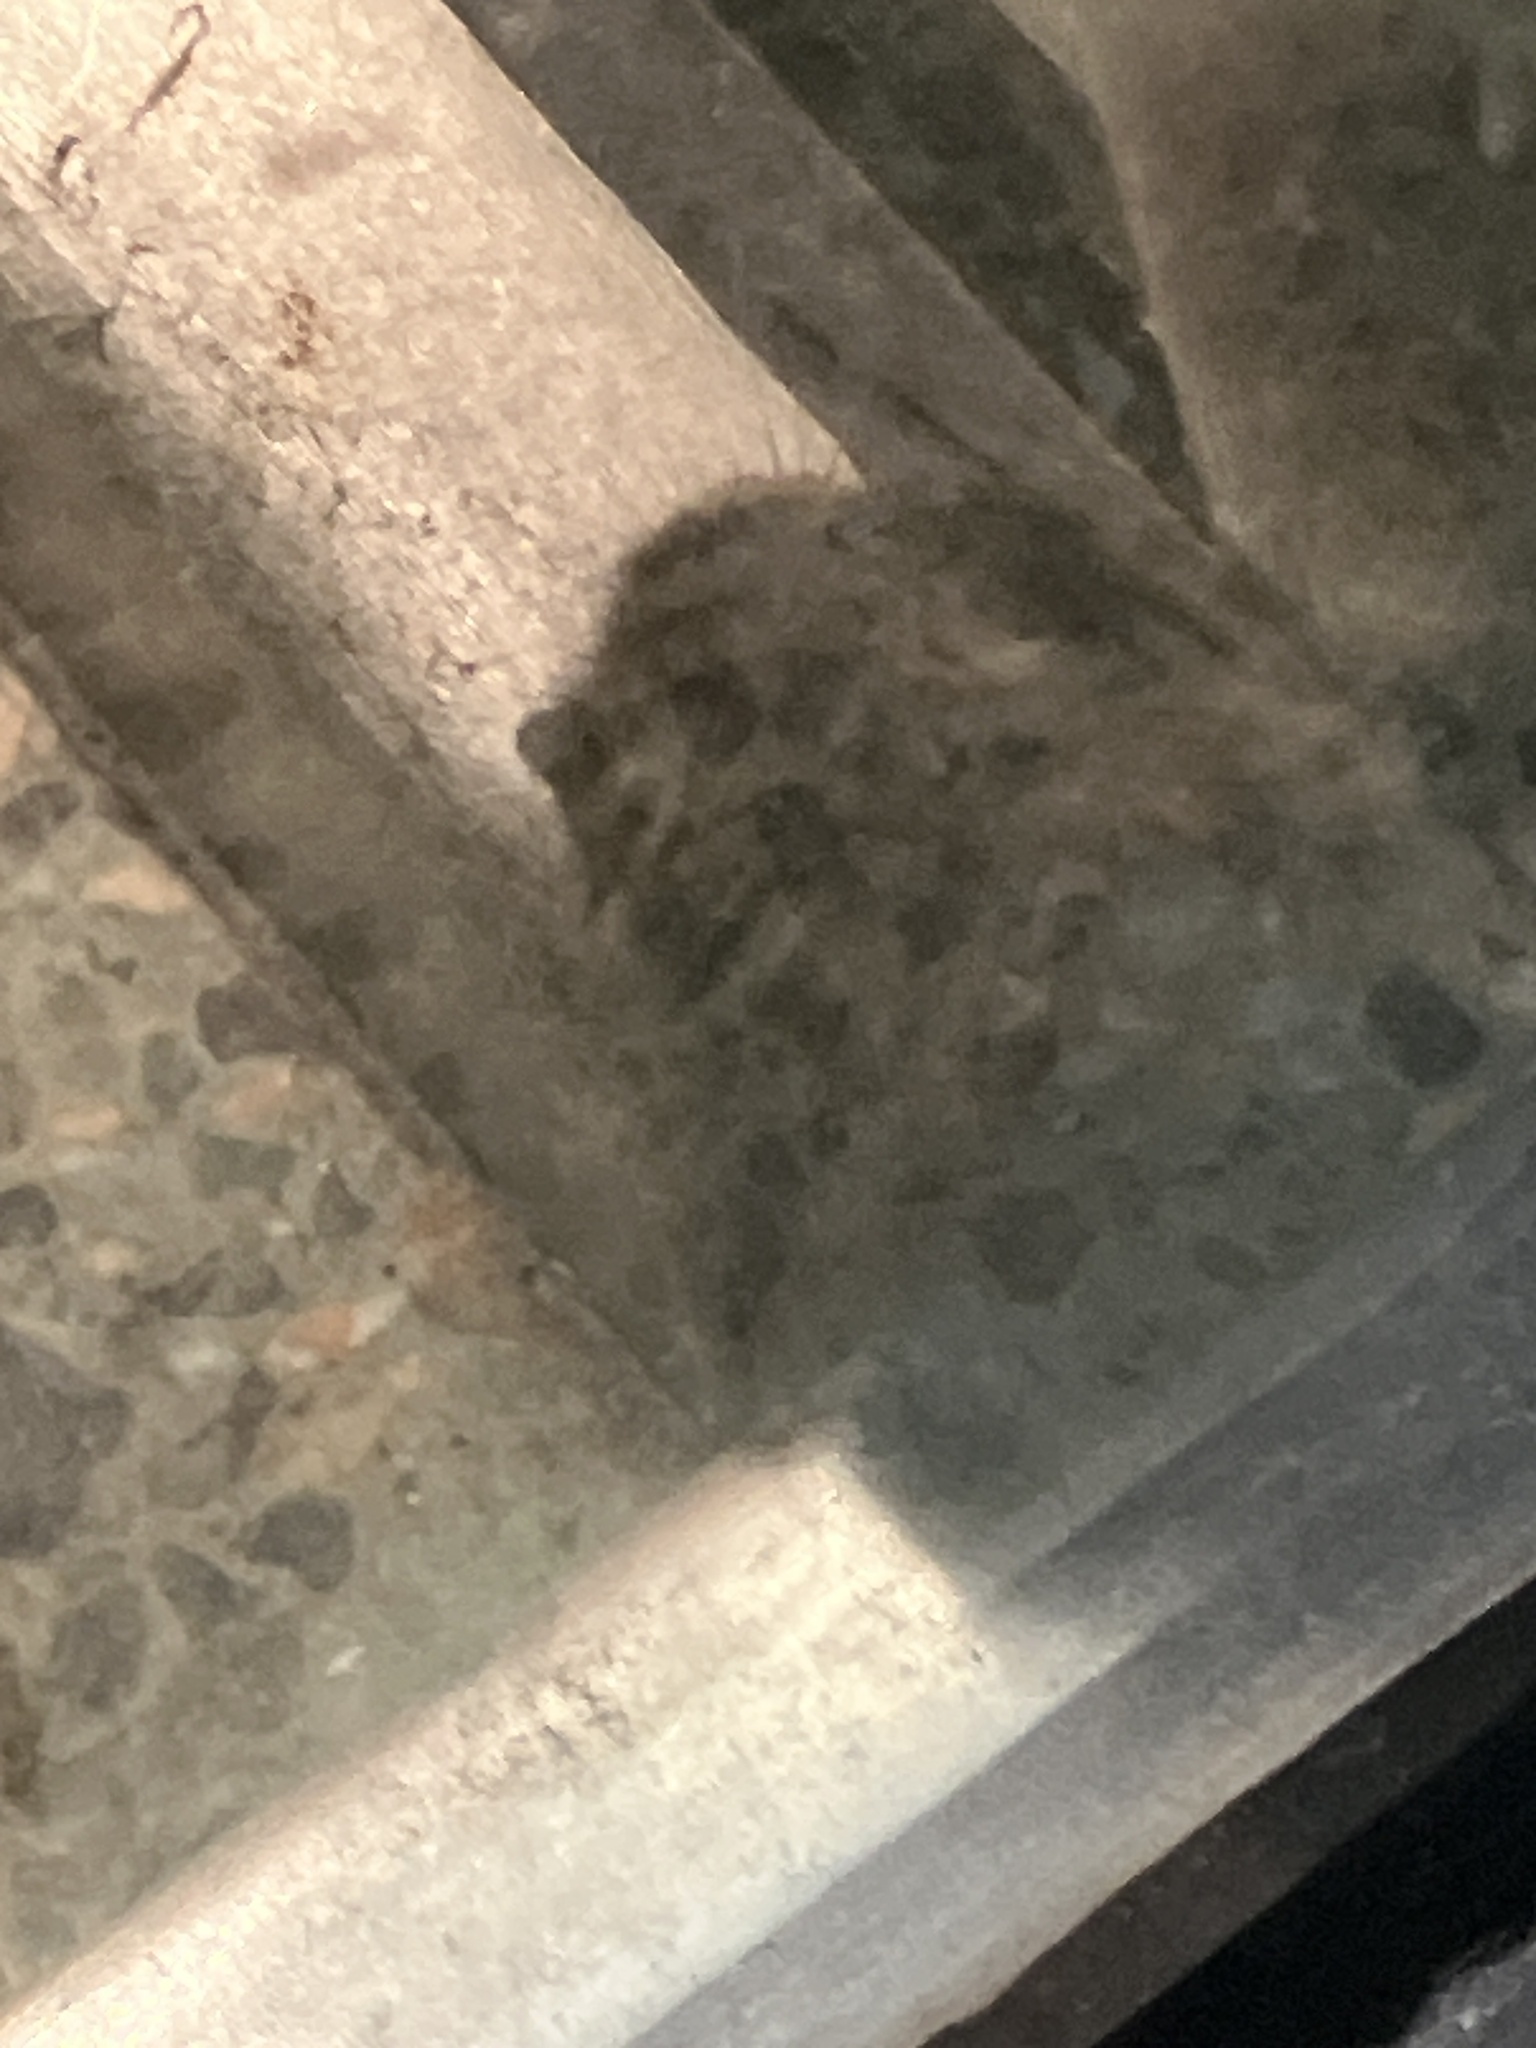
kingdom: Animalia
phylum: Chordata
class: Mammalia
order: Rodentia
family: Muridae
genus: Mus
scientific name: Mus musculus
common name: House mouse
